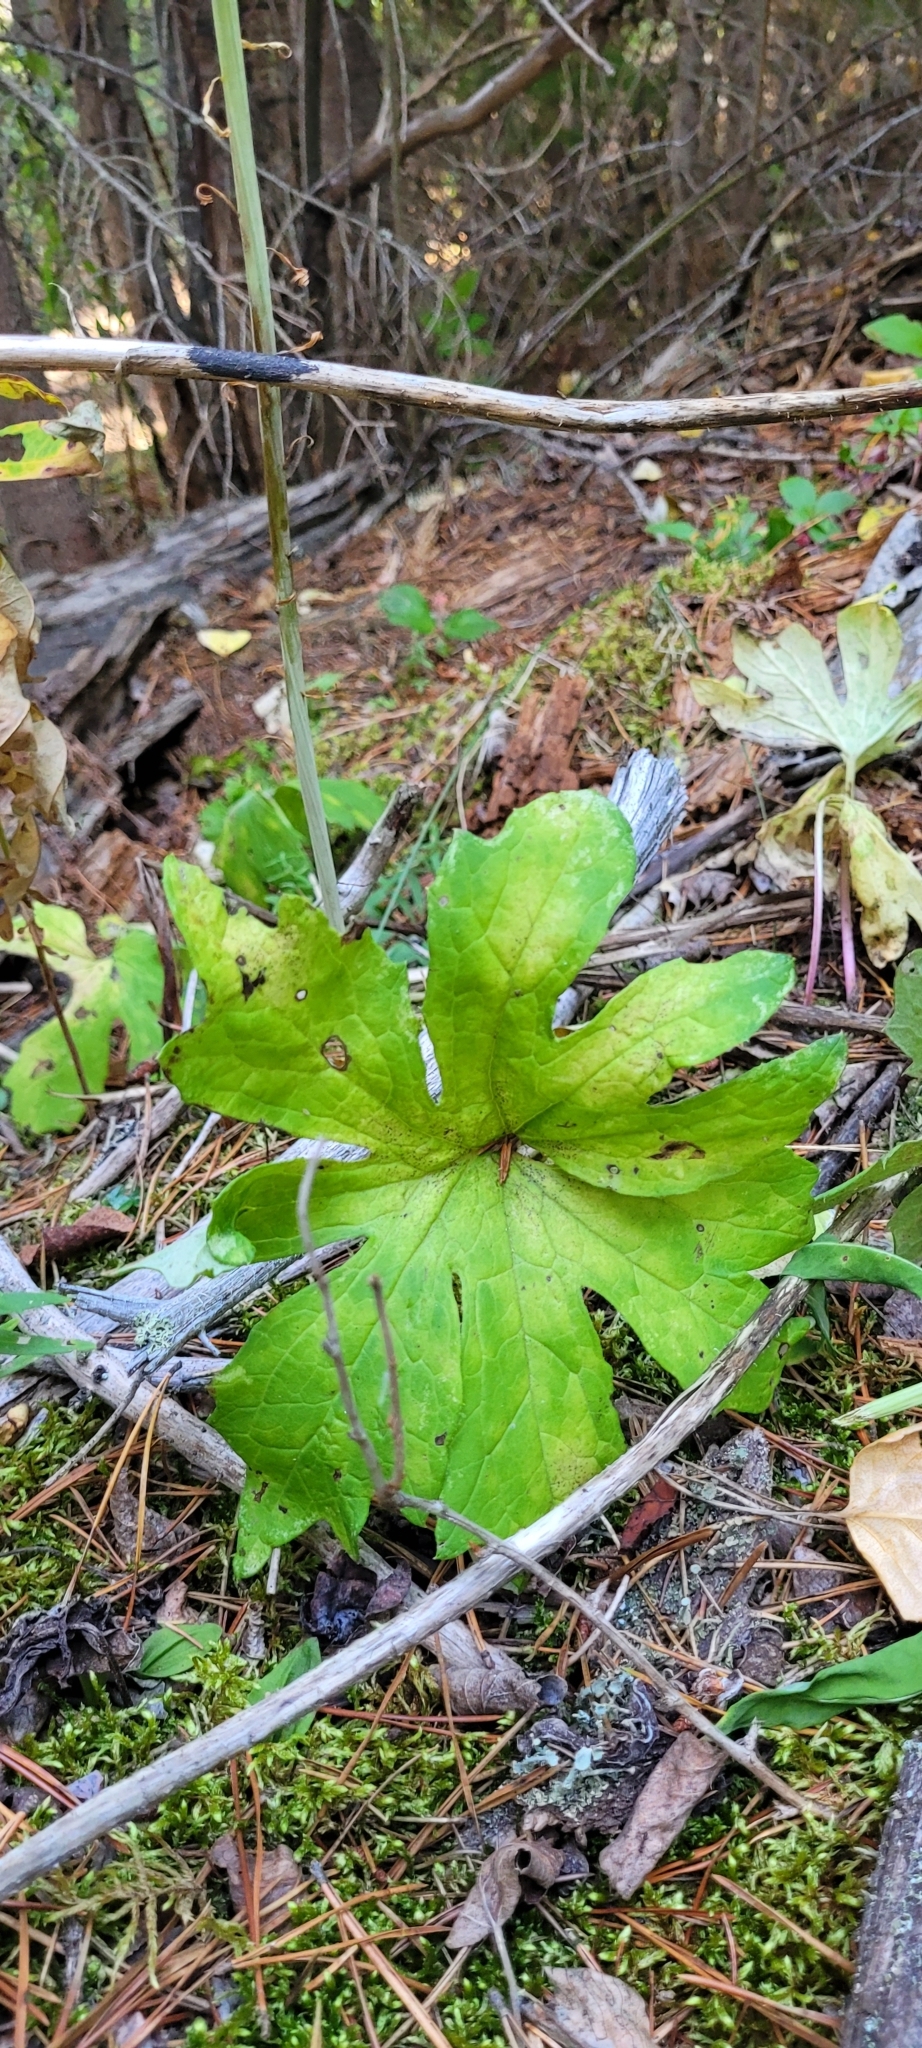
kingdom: Plantae
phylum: Tracheophyta
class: Magnoliopsida
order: Asterales
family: Asteraceae
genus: Petasites
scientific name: Petasites frigidus
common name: Arctic butterbur
